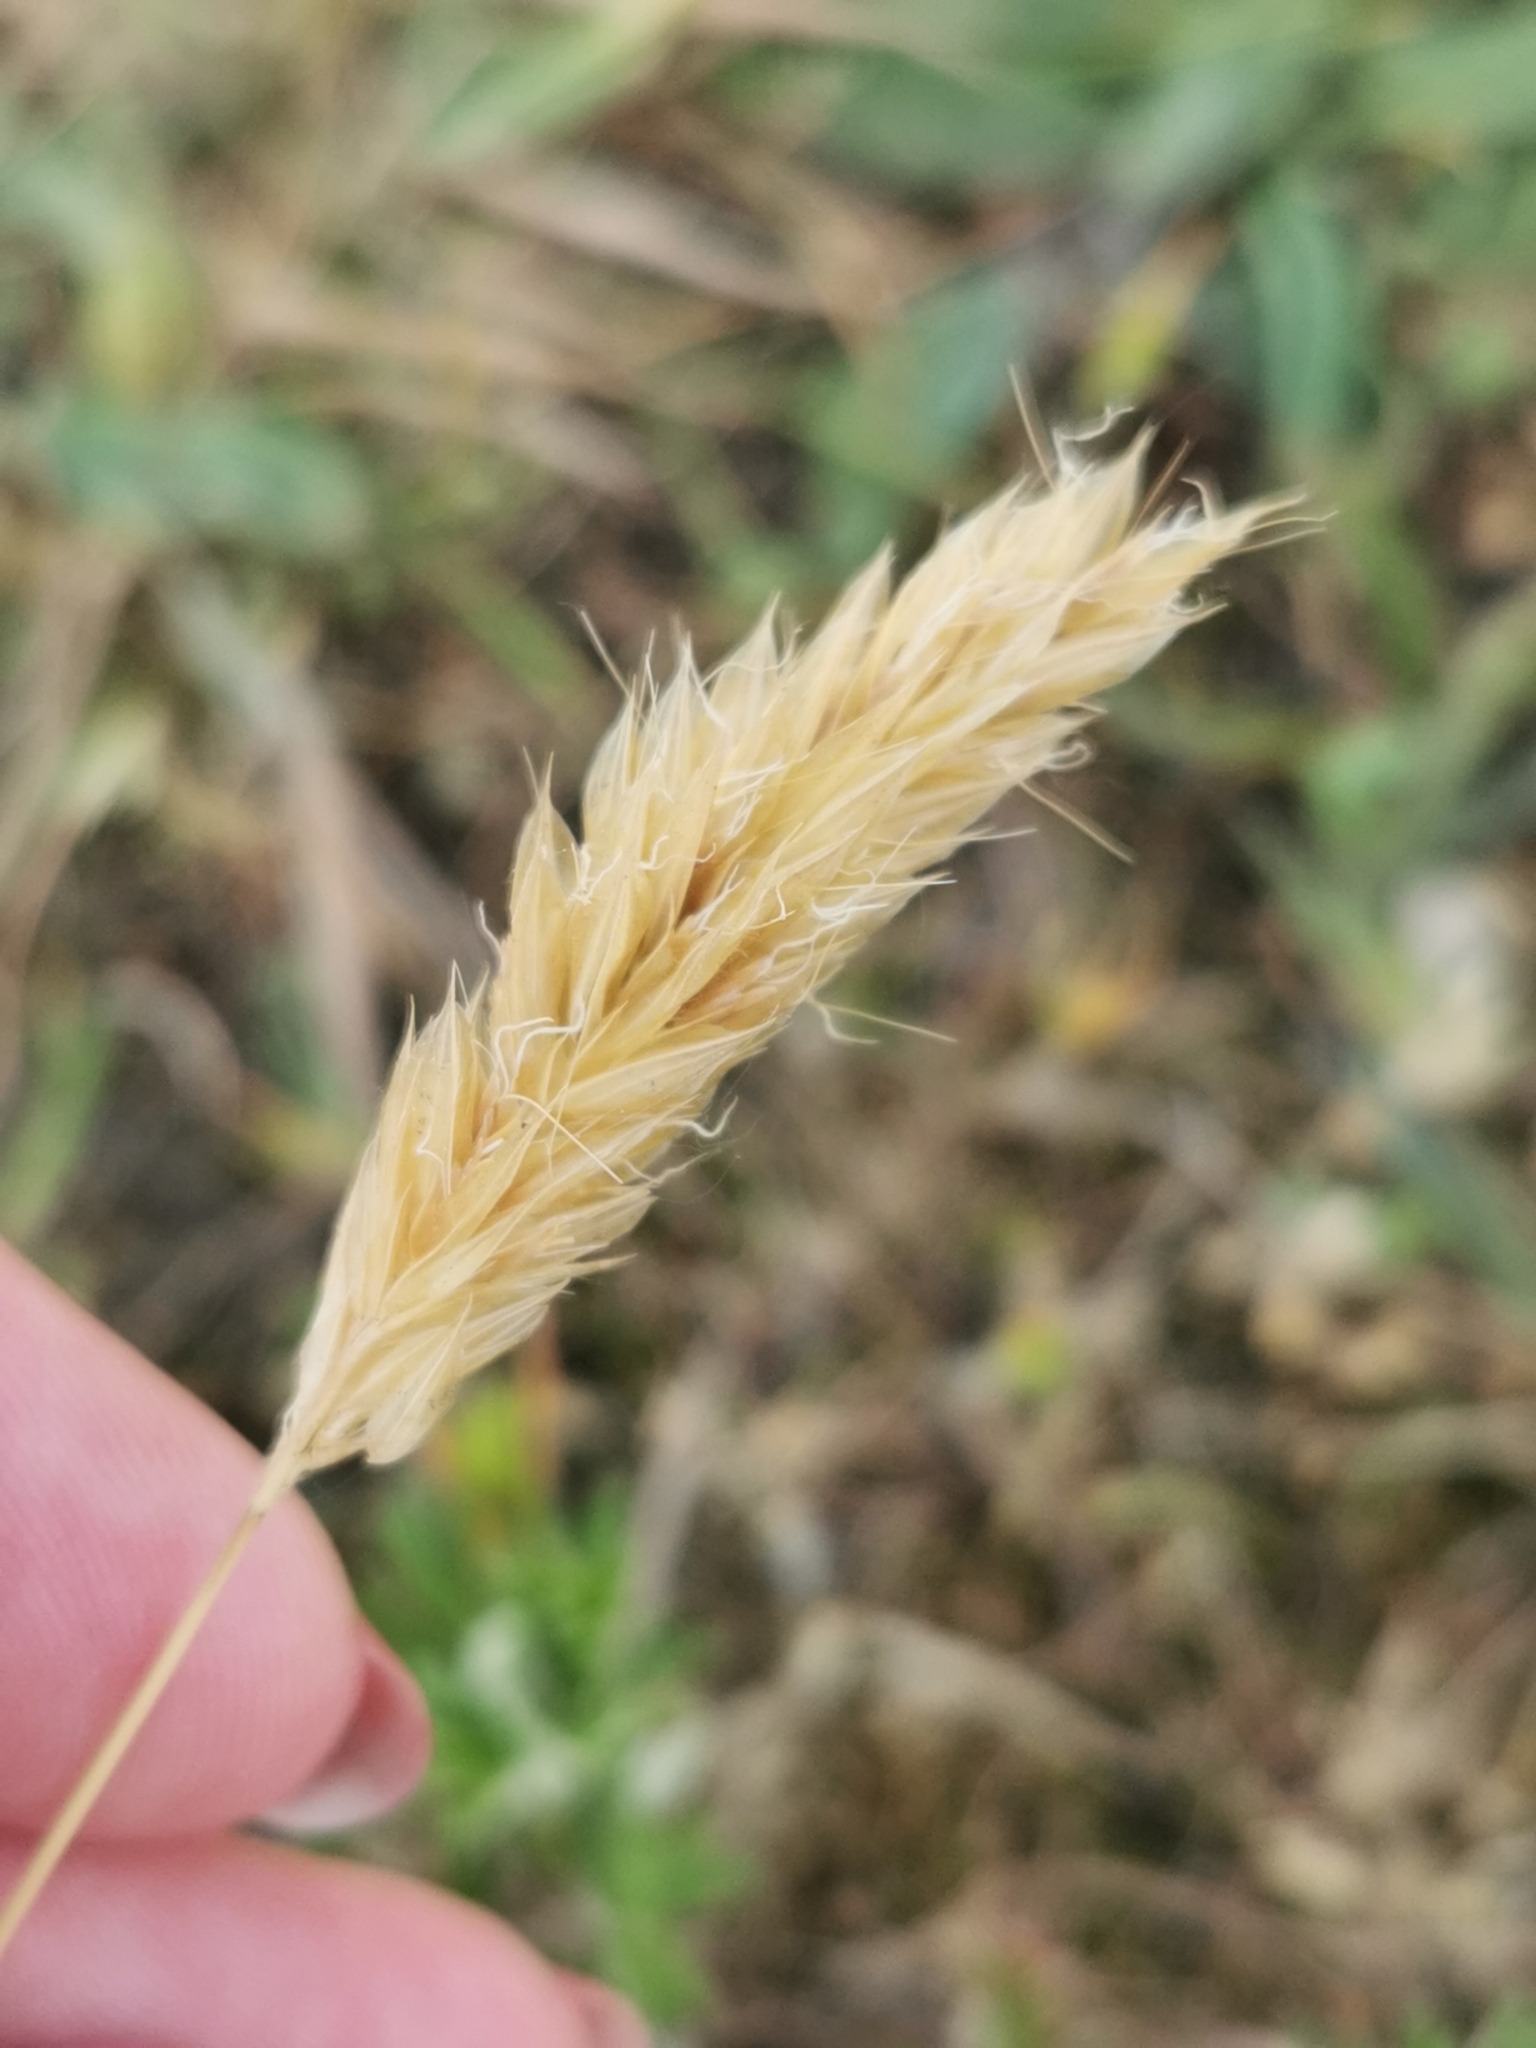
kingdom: Plantae
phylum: Tracheophyta
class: Liliopsida
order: Poales
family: Poaceae
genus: Anthoxanthum
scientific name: Anthoxanthum odoratum
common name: Sweet vernalgrass
